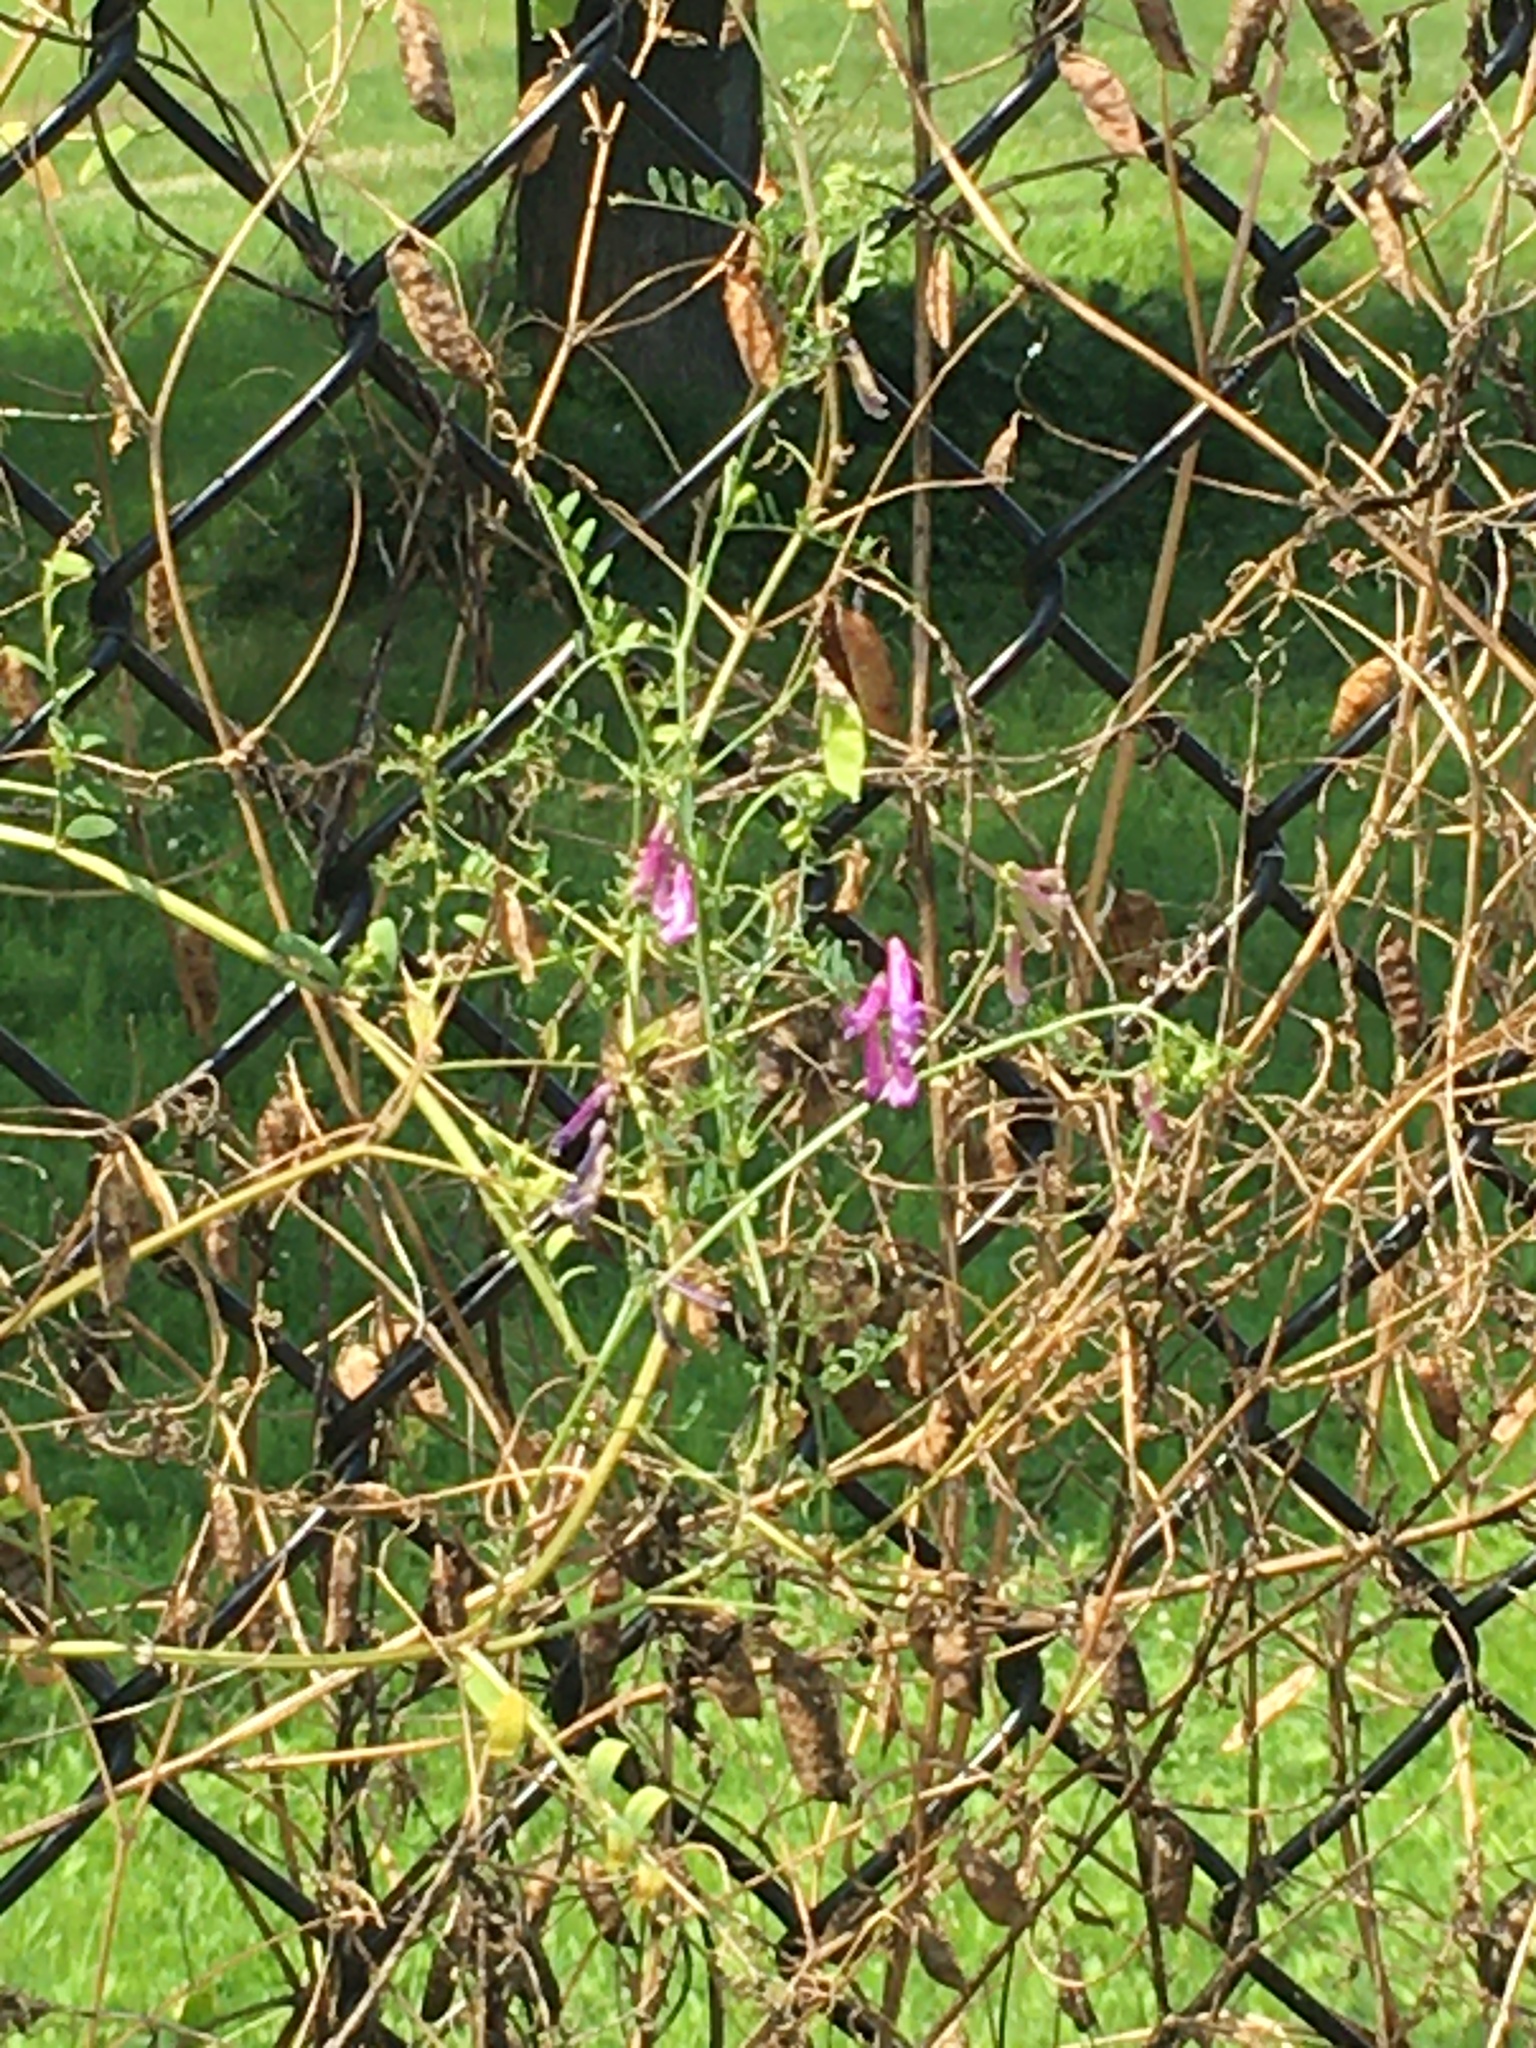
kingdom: Plantae
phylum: Tracheophyta
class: Magnoliopsida
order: Fabales
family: Fabaceae
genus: Vicia
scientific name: Vicia villosa
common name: Fodder vetch
